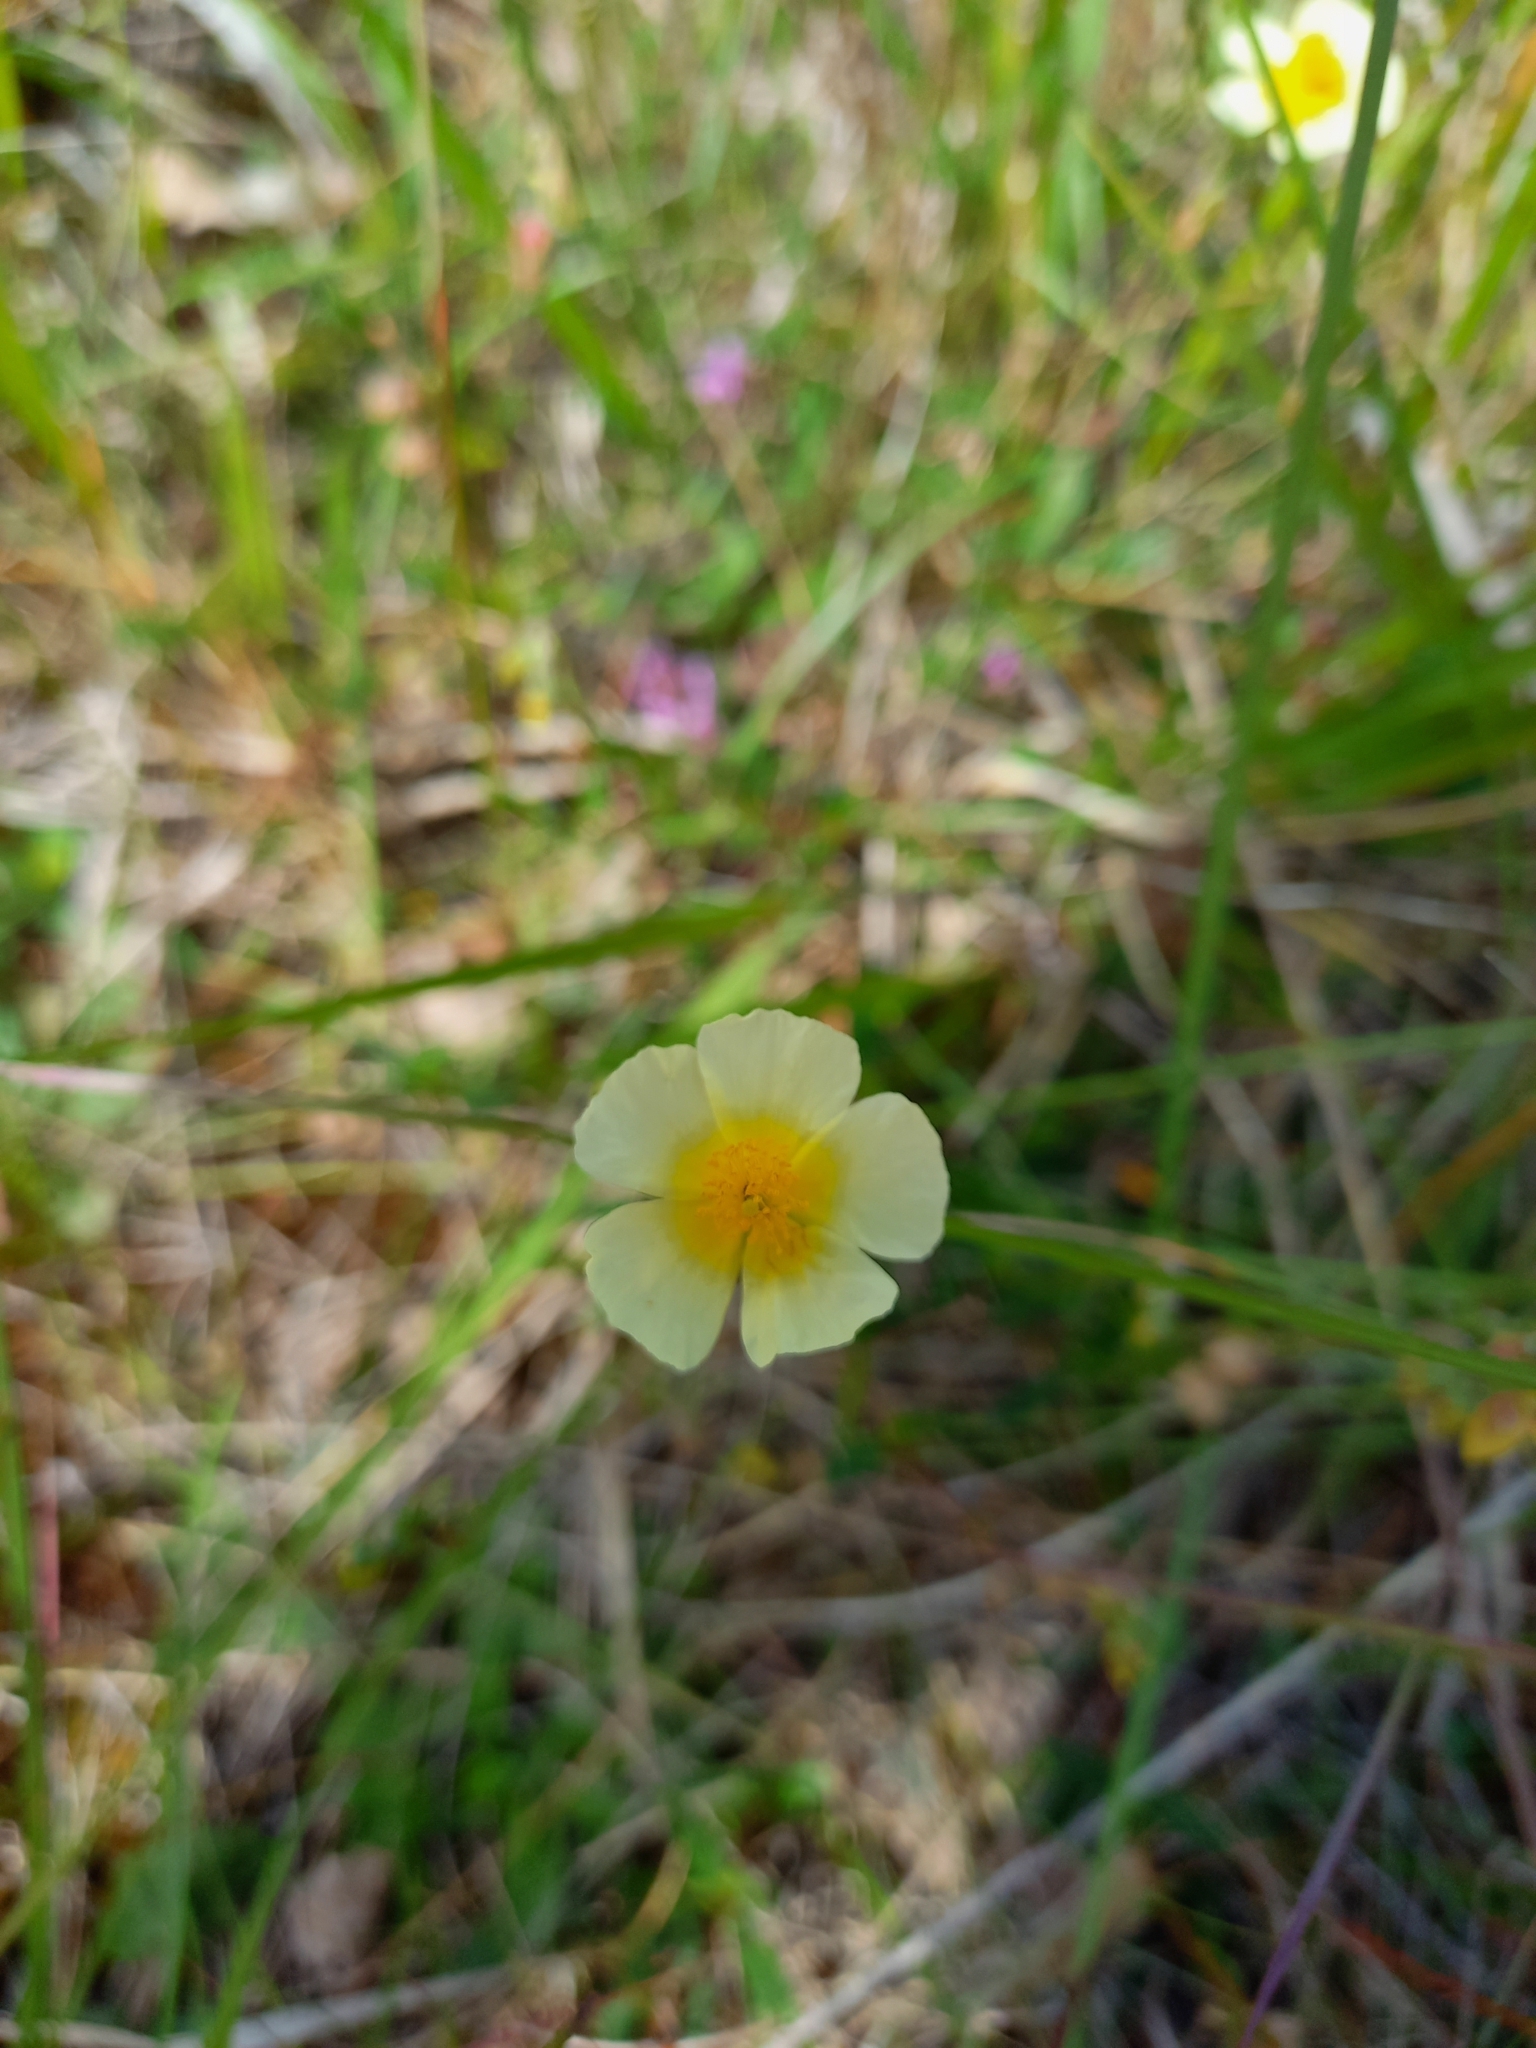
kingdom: Plantae
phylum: Tracheophyta
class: Magnoliopsida
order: Malvales
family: Cistaceae
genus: Helianthemum
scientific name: Helianthemum sulphureum
